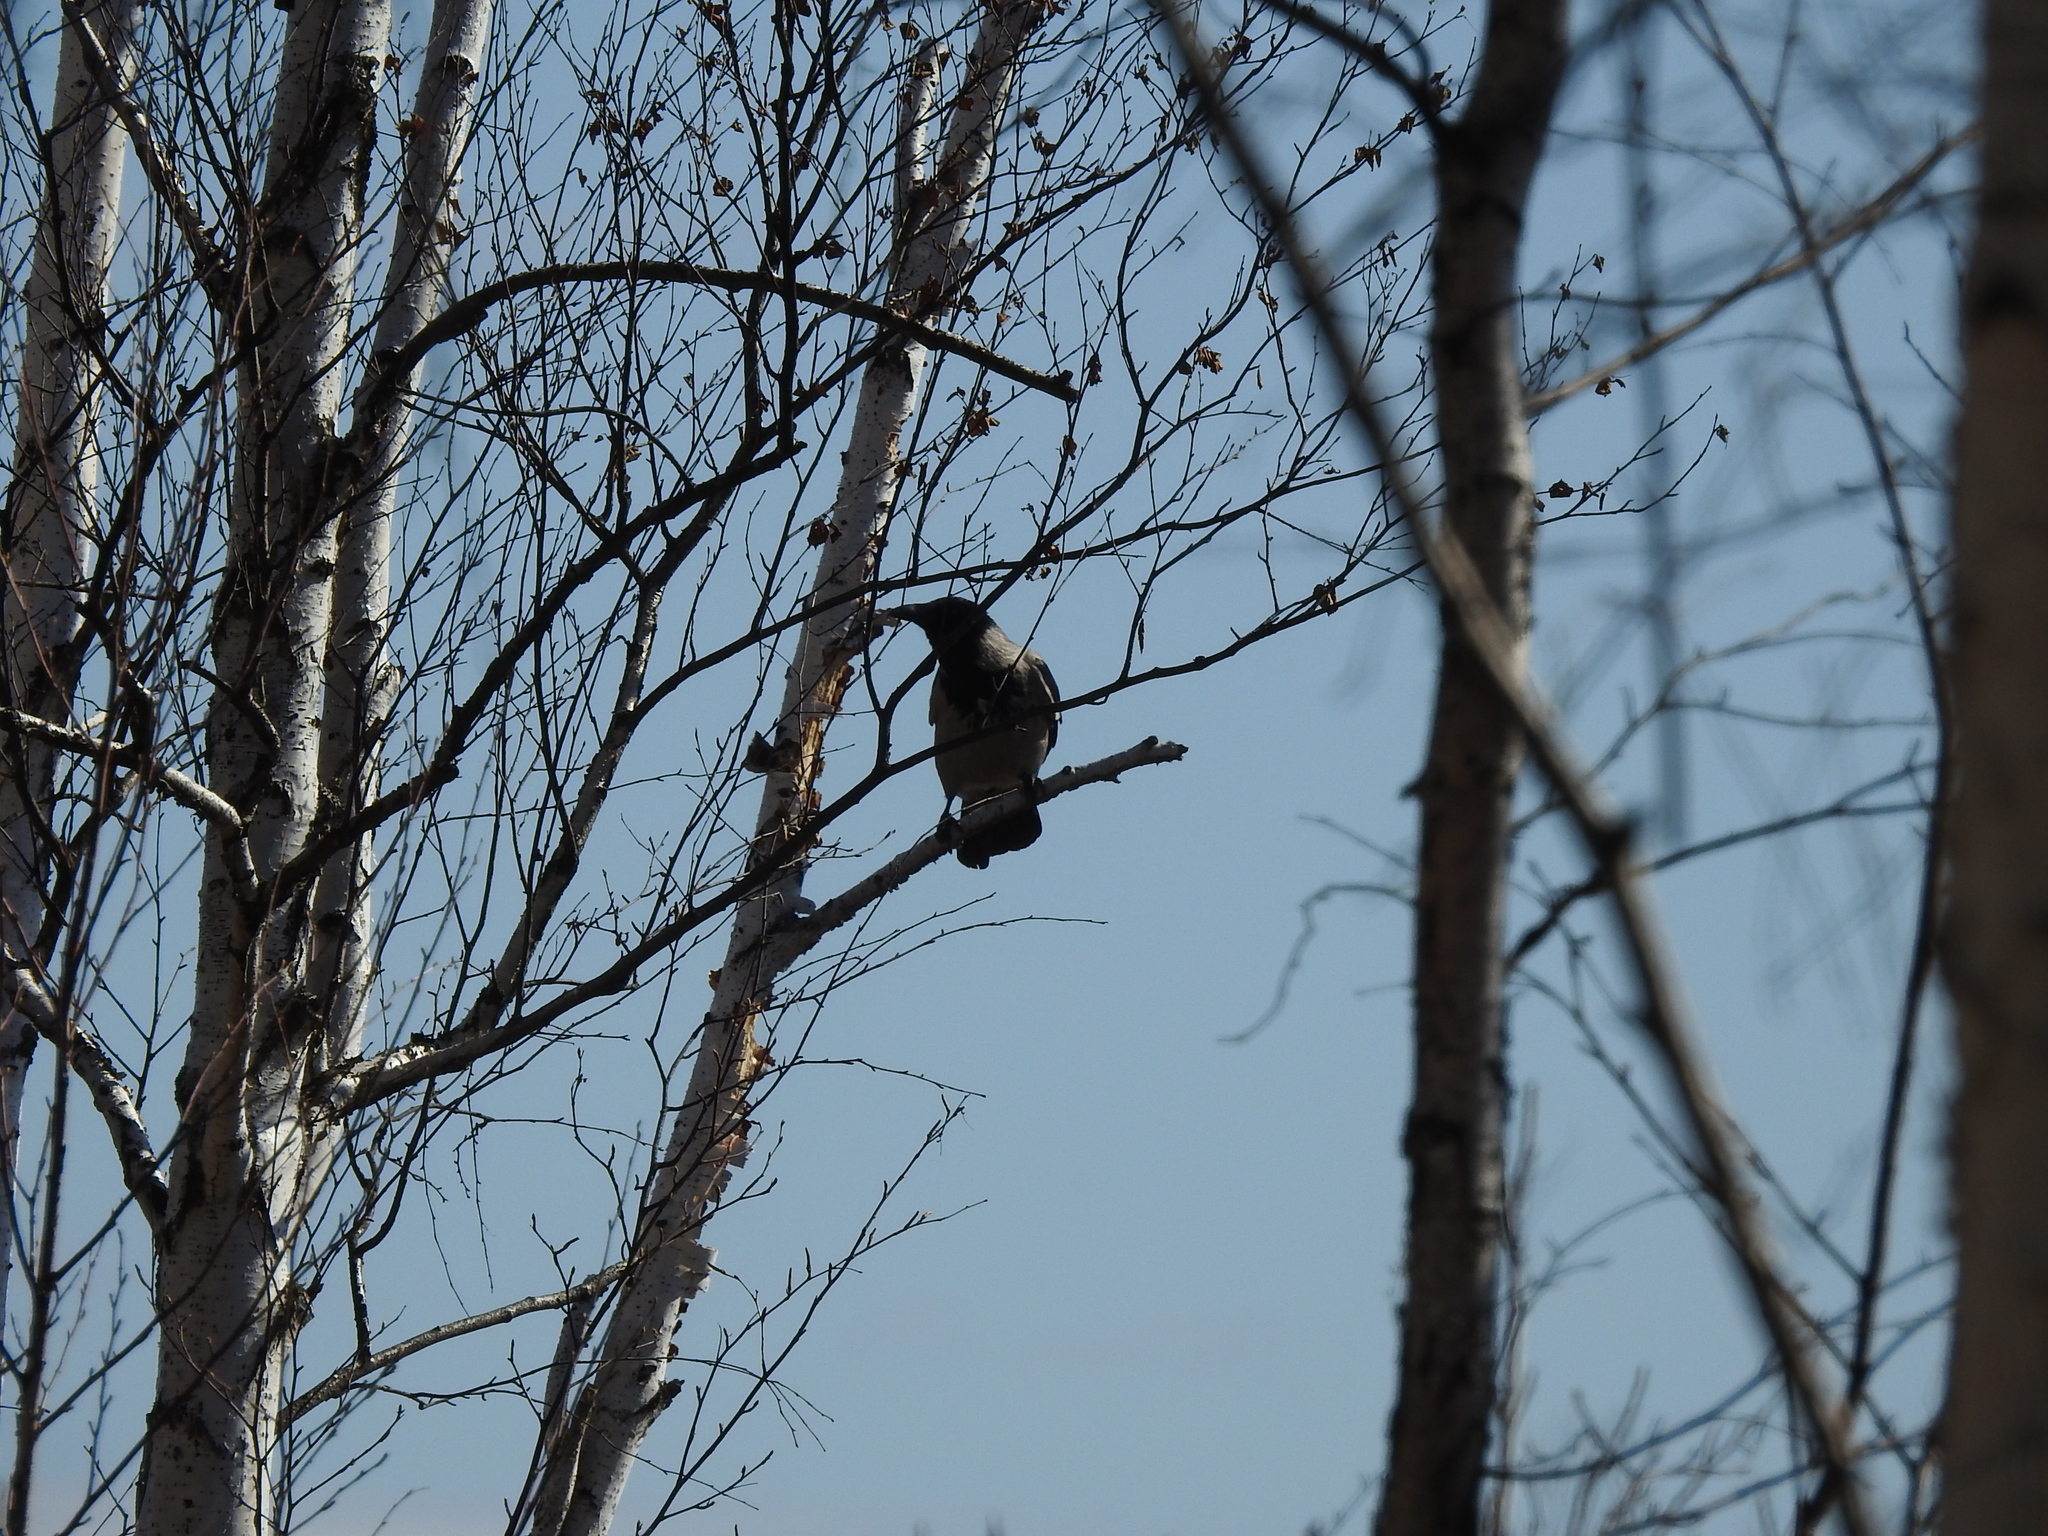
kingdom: Animalia
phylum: Chordata
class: Aves
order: Passeriformes
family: Corvidae
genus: Corvus
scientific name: Corvus cornix
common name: Hooded crow
